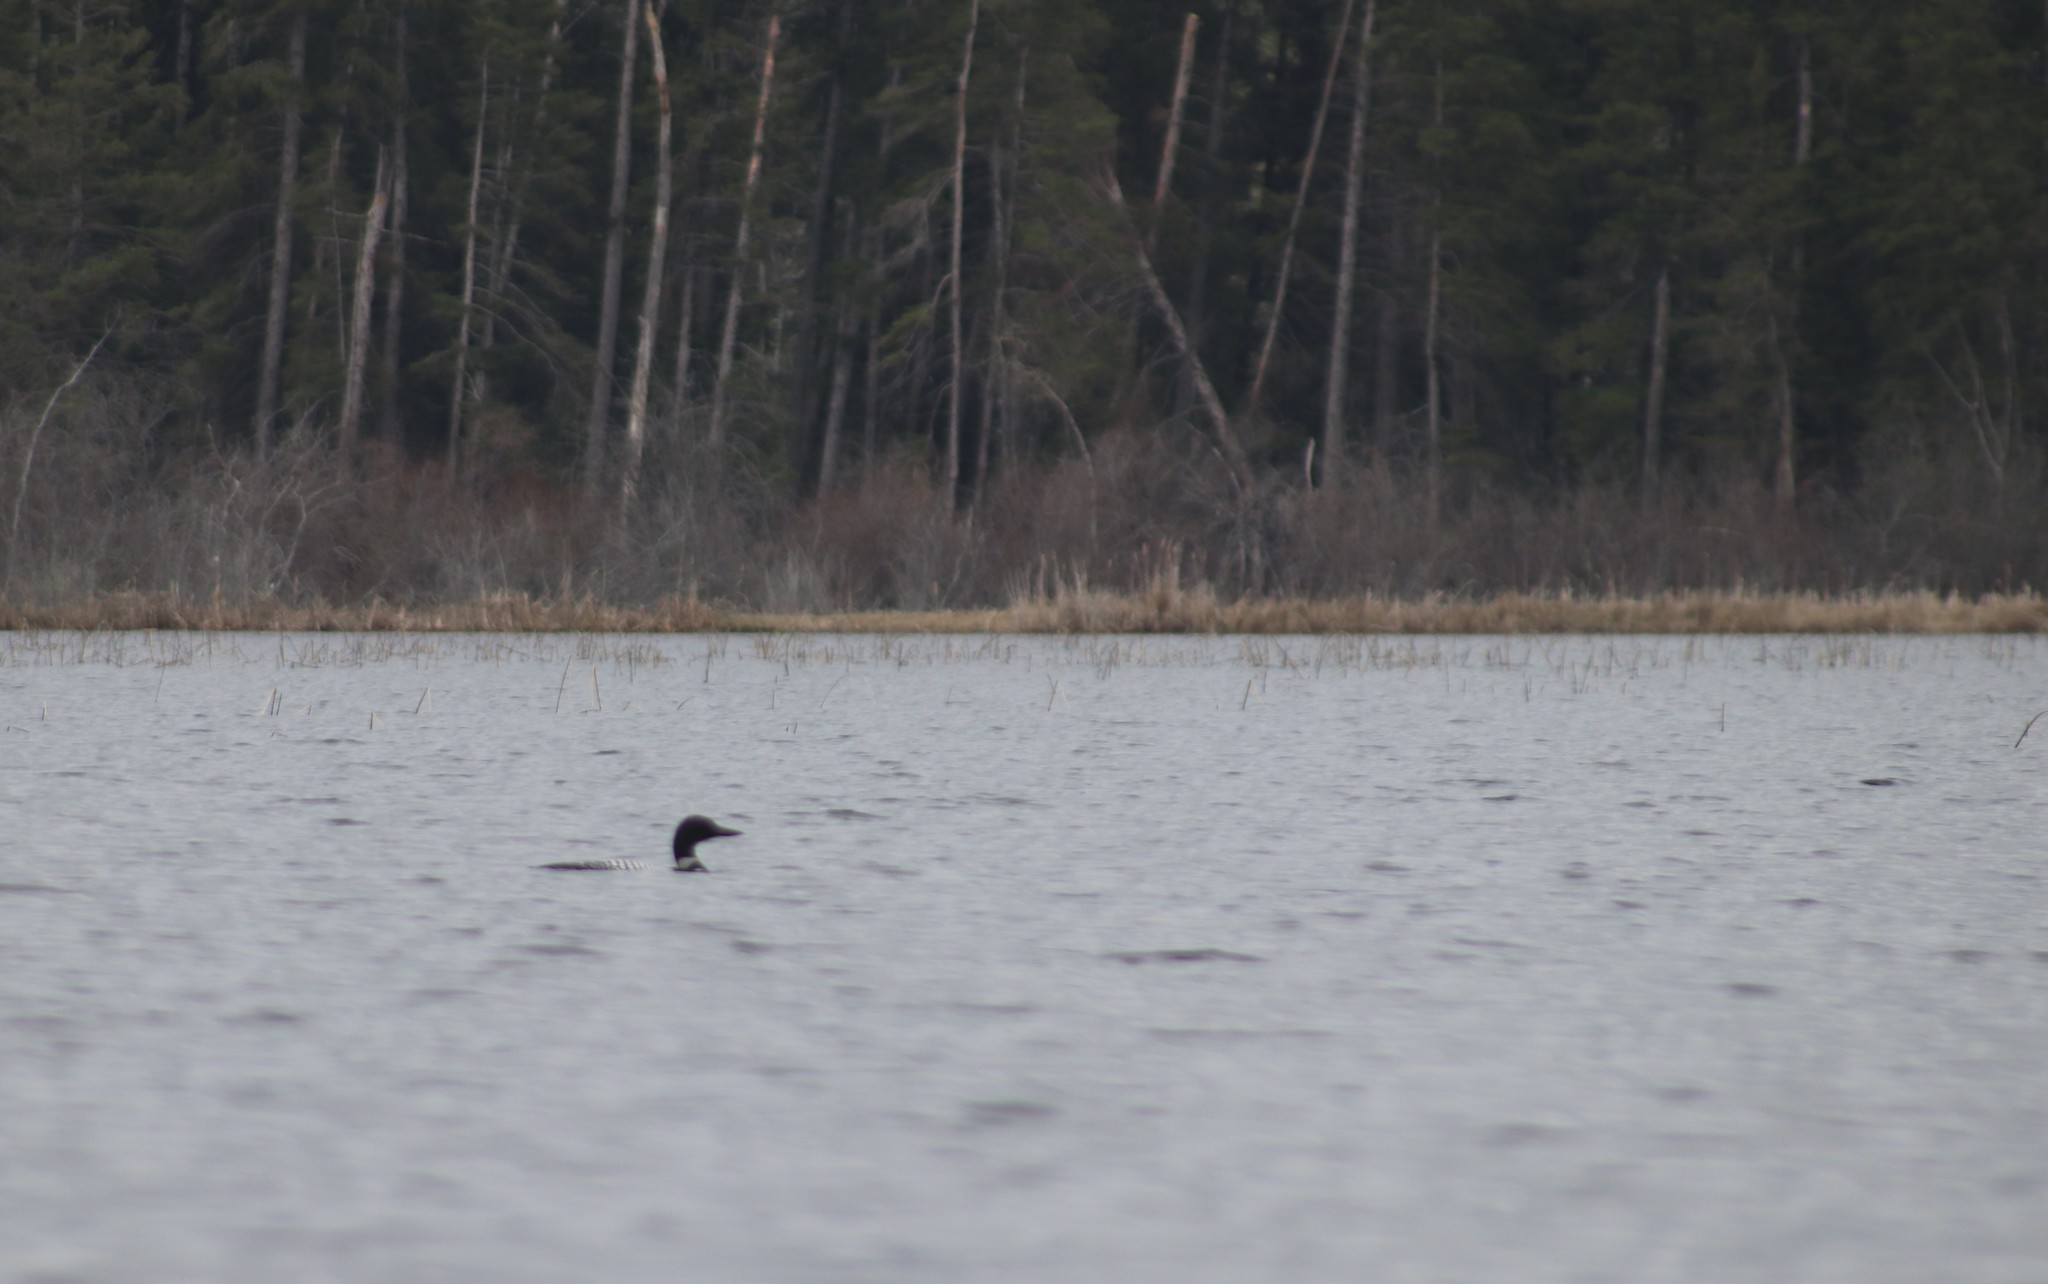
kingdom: Animalia
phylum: Chordata
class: Aves
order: Gaviiformes
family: Gaviidae
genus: Gavia
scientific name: Gavia immer
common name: Common loon
